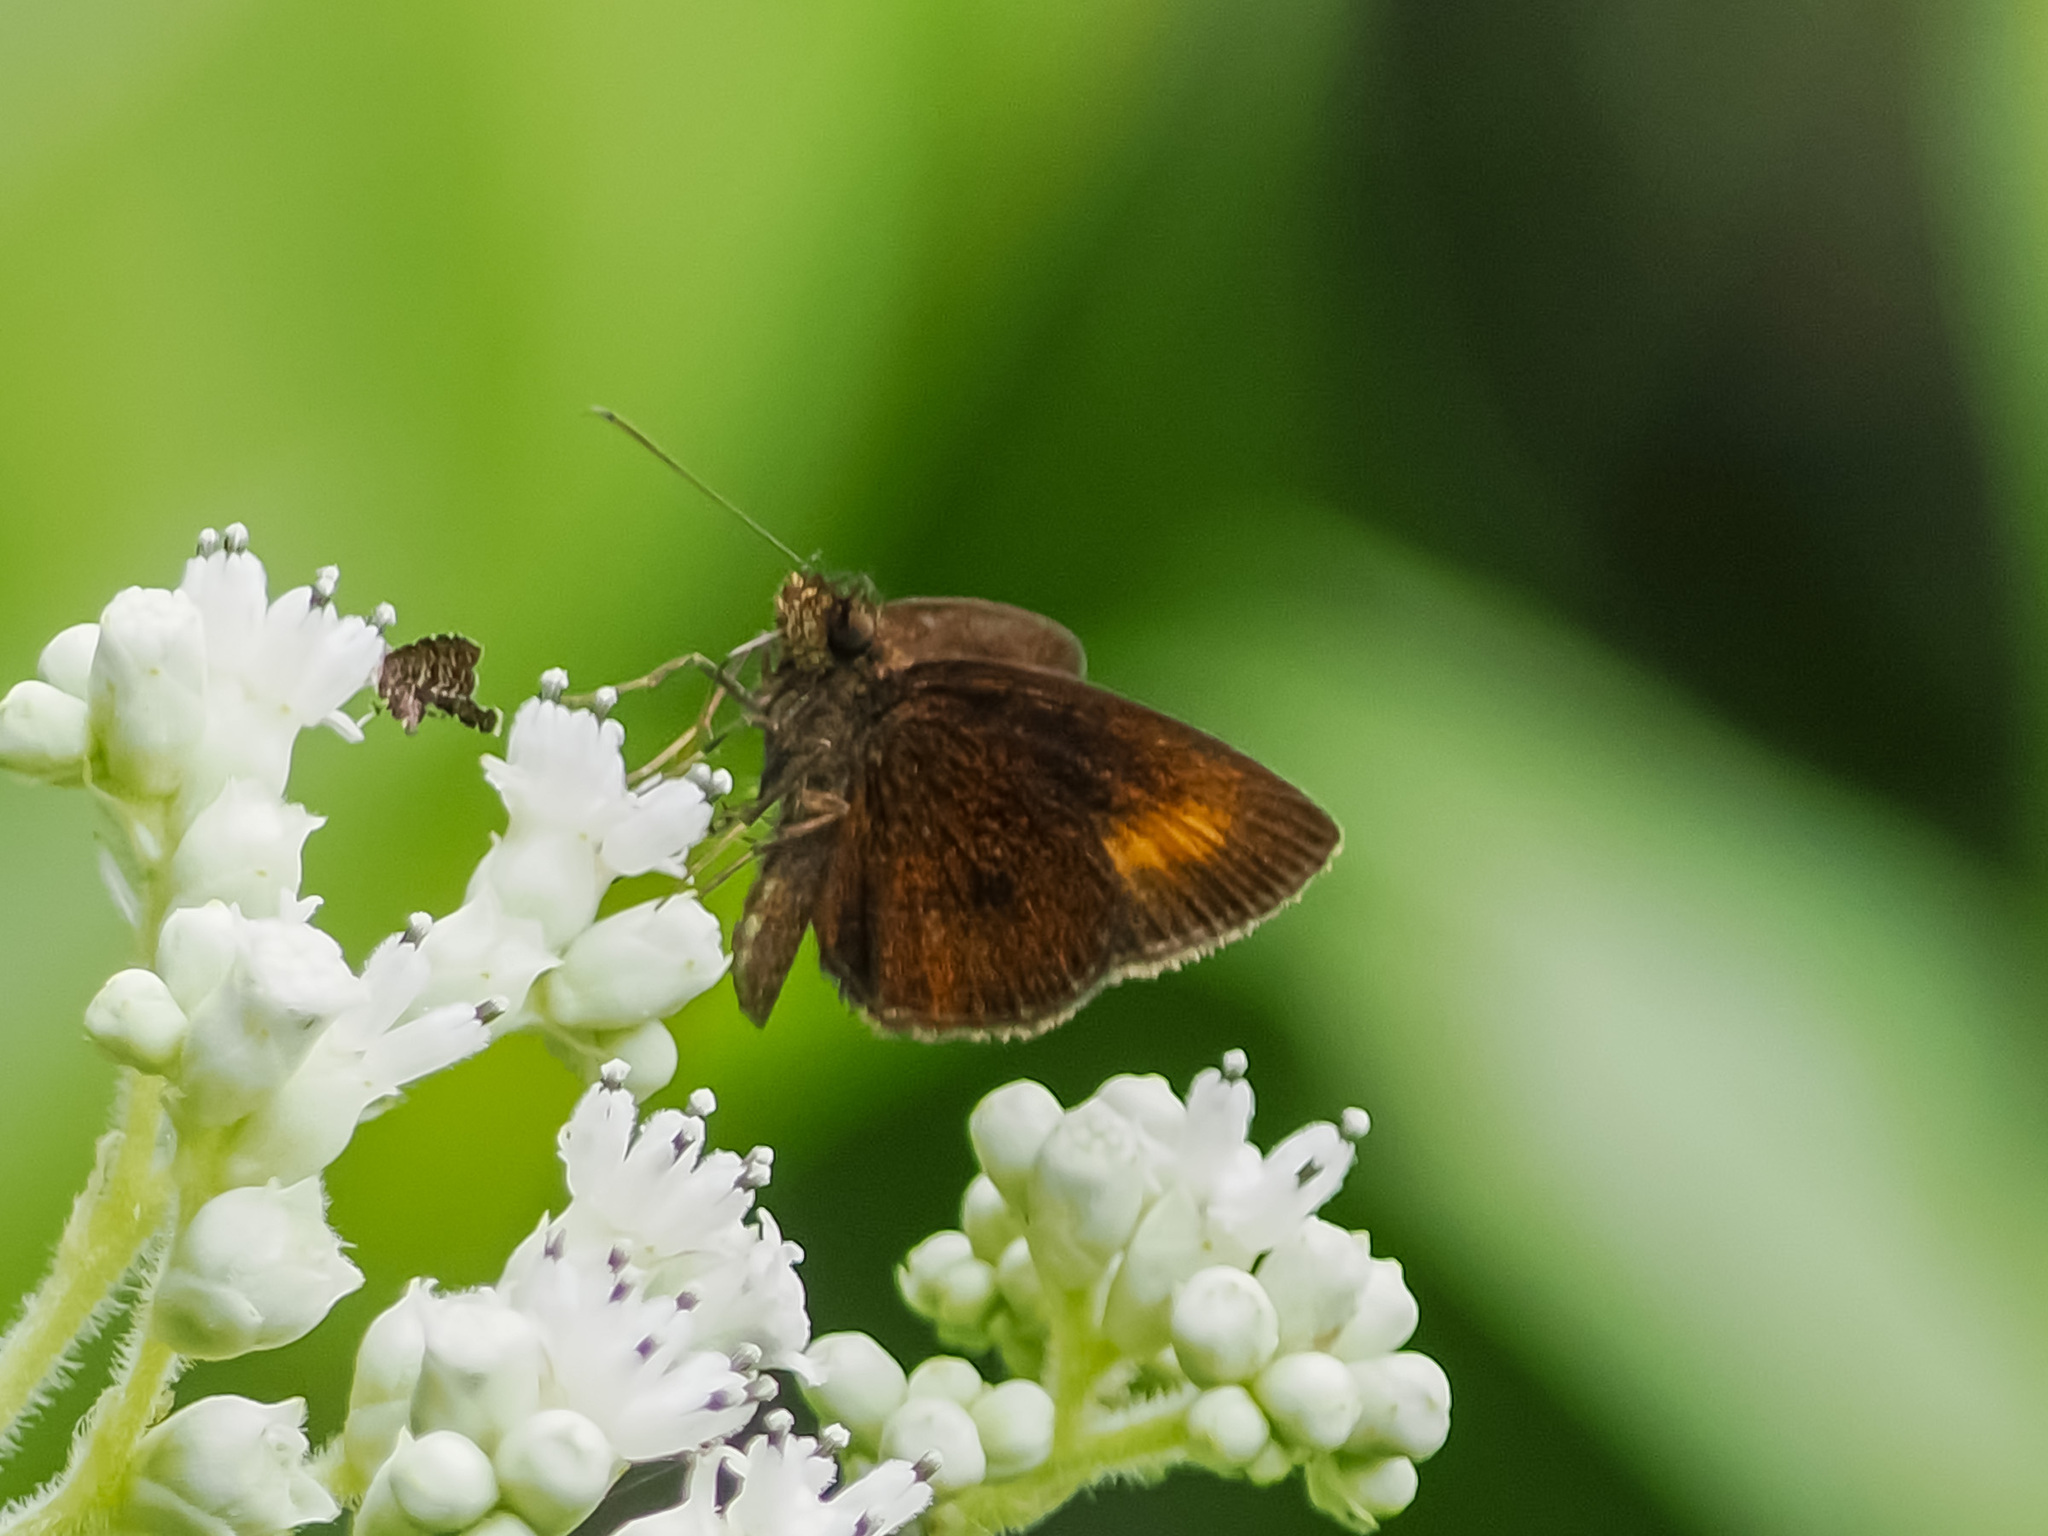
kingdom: Animalia
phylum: Arthropoda
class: Insecta
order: Lepidoptera
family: Hesperiidae
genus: Iambrix
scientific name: Iambrix Idmon obliquans
